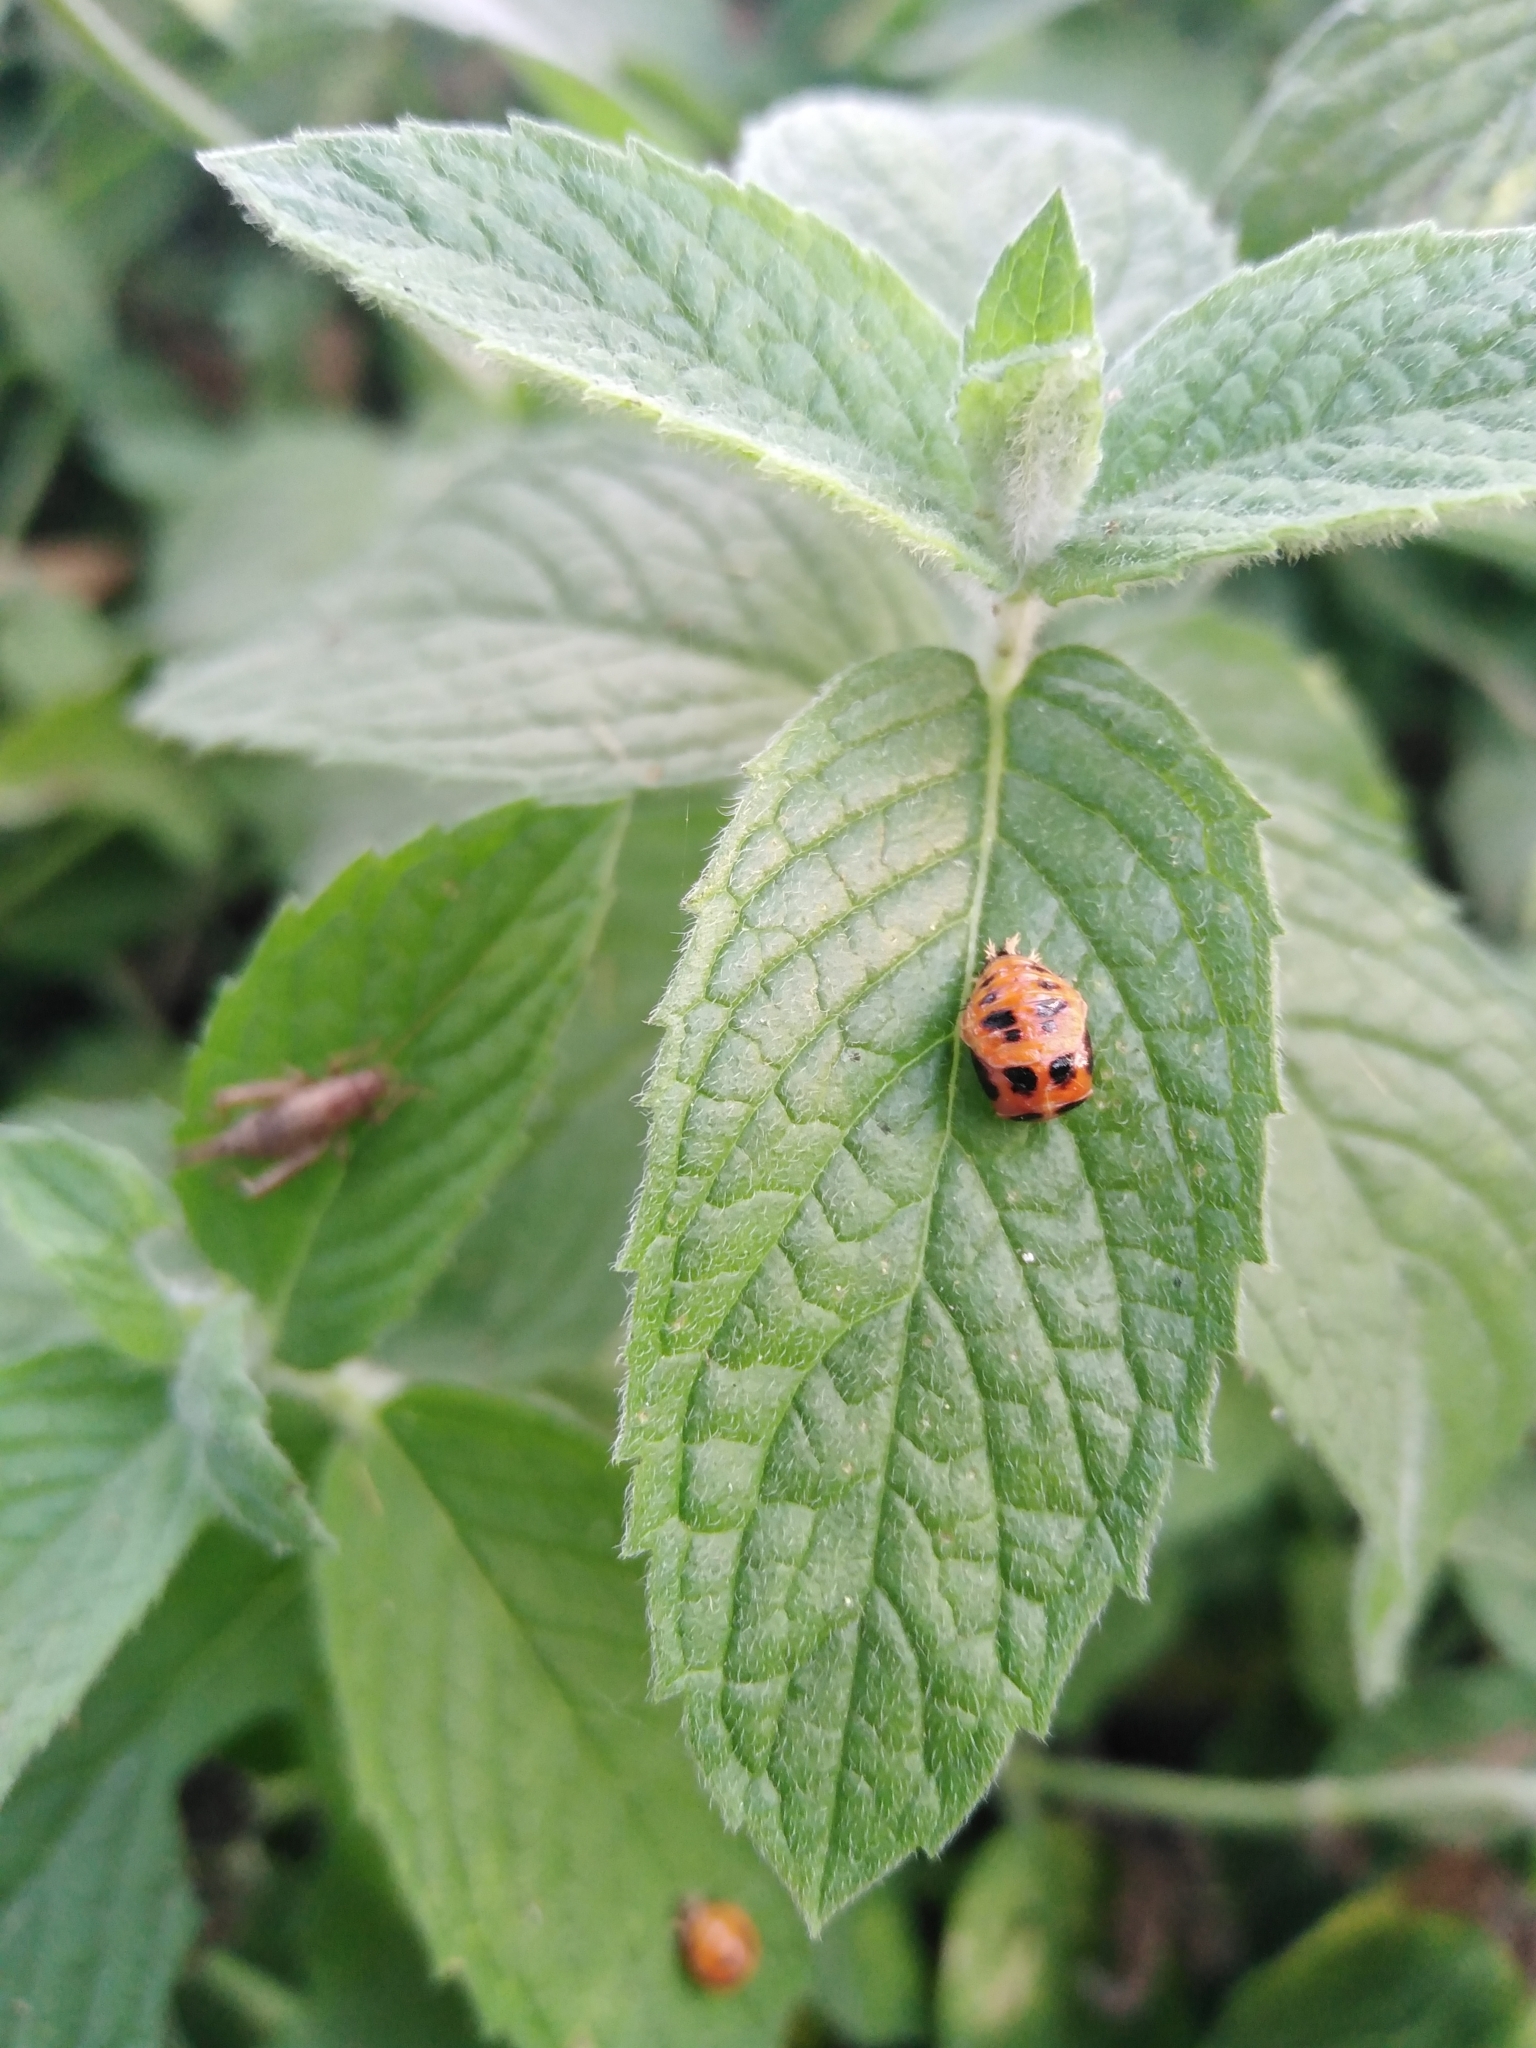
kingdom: Animalia
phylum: Arthropoda
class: Insecta
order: Coleoptera
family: Coccinellidae
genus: Harmonia
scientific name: Harmonia axyridis
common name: Harlequin ladybird
